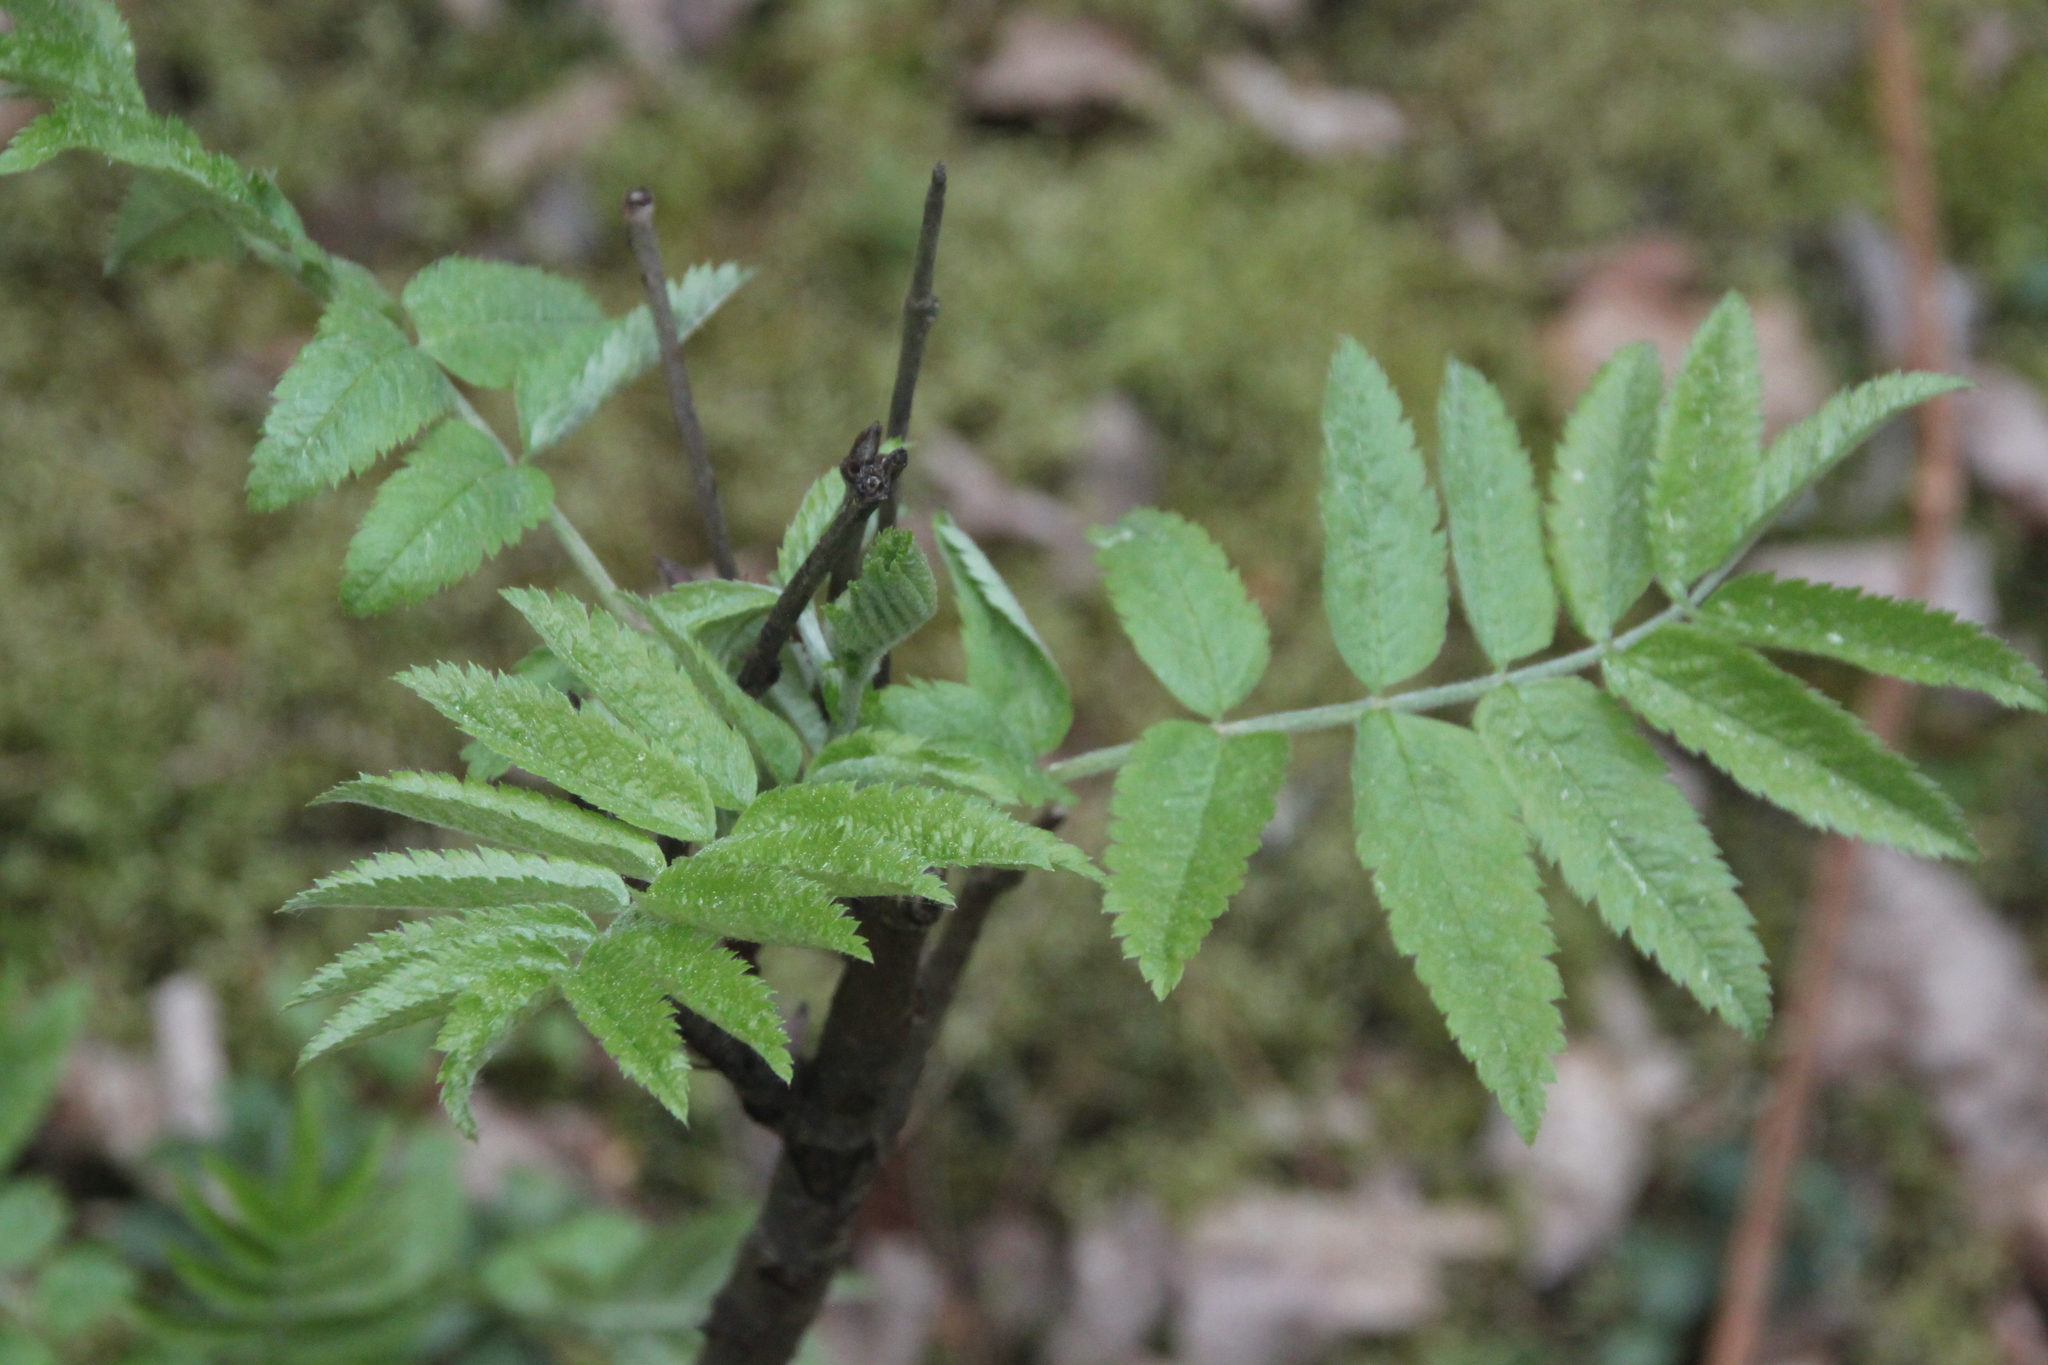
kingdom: Plantae
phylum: Tracheophyta
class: Magnoliopsida
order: Rosales
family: Rosaceae
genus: Sorbus
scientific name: Sorbus aucuparia
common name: Rowan
